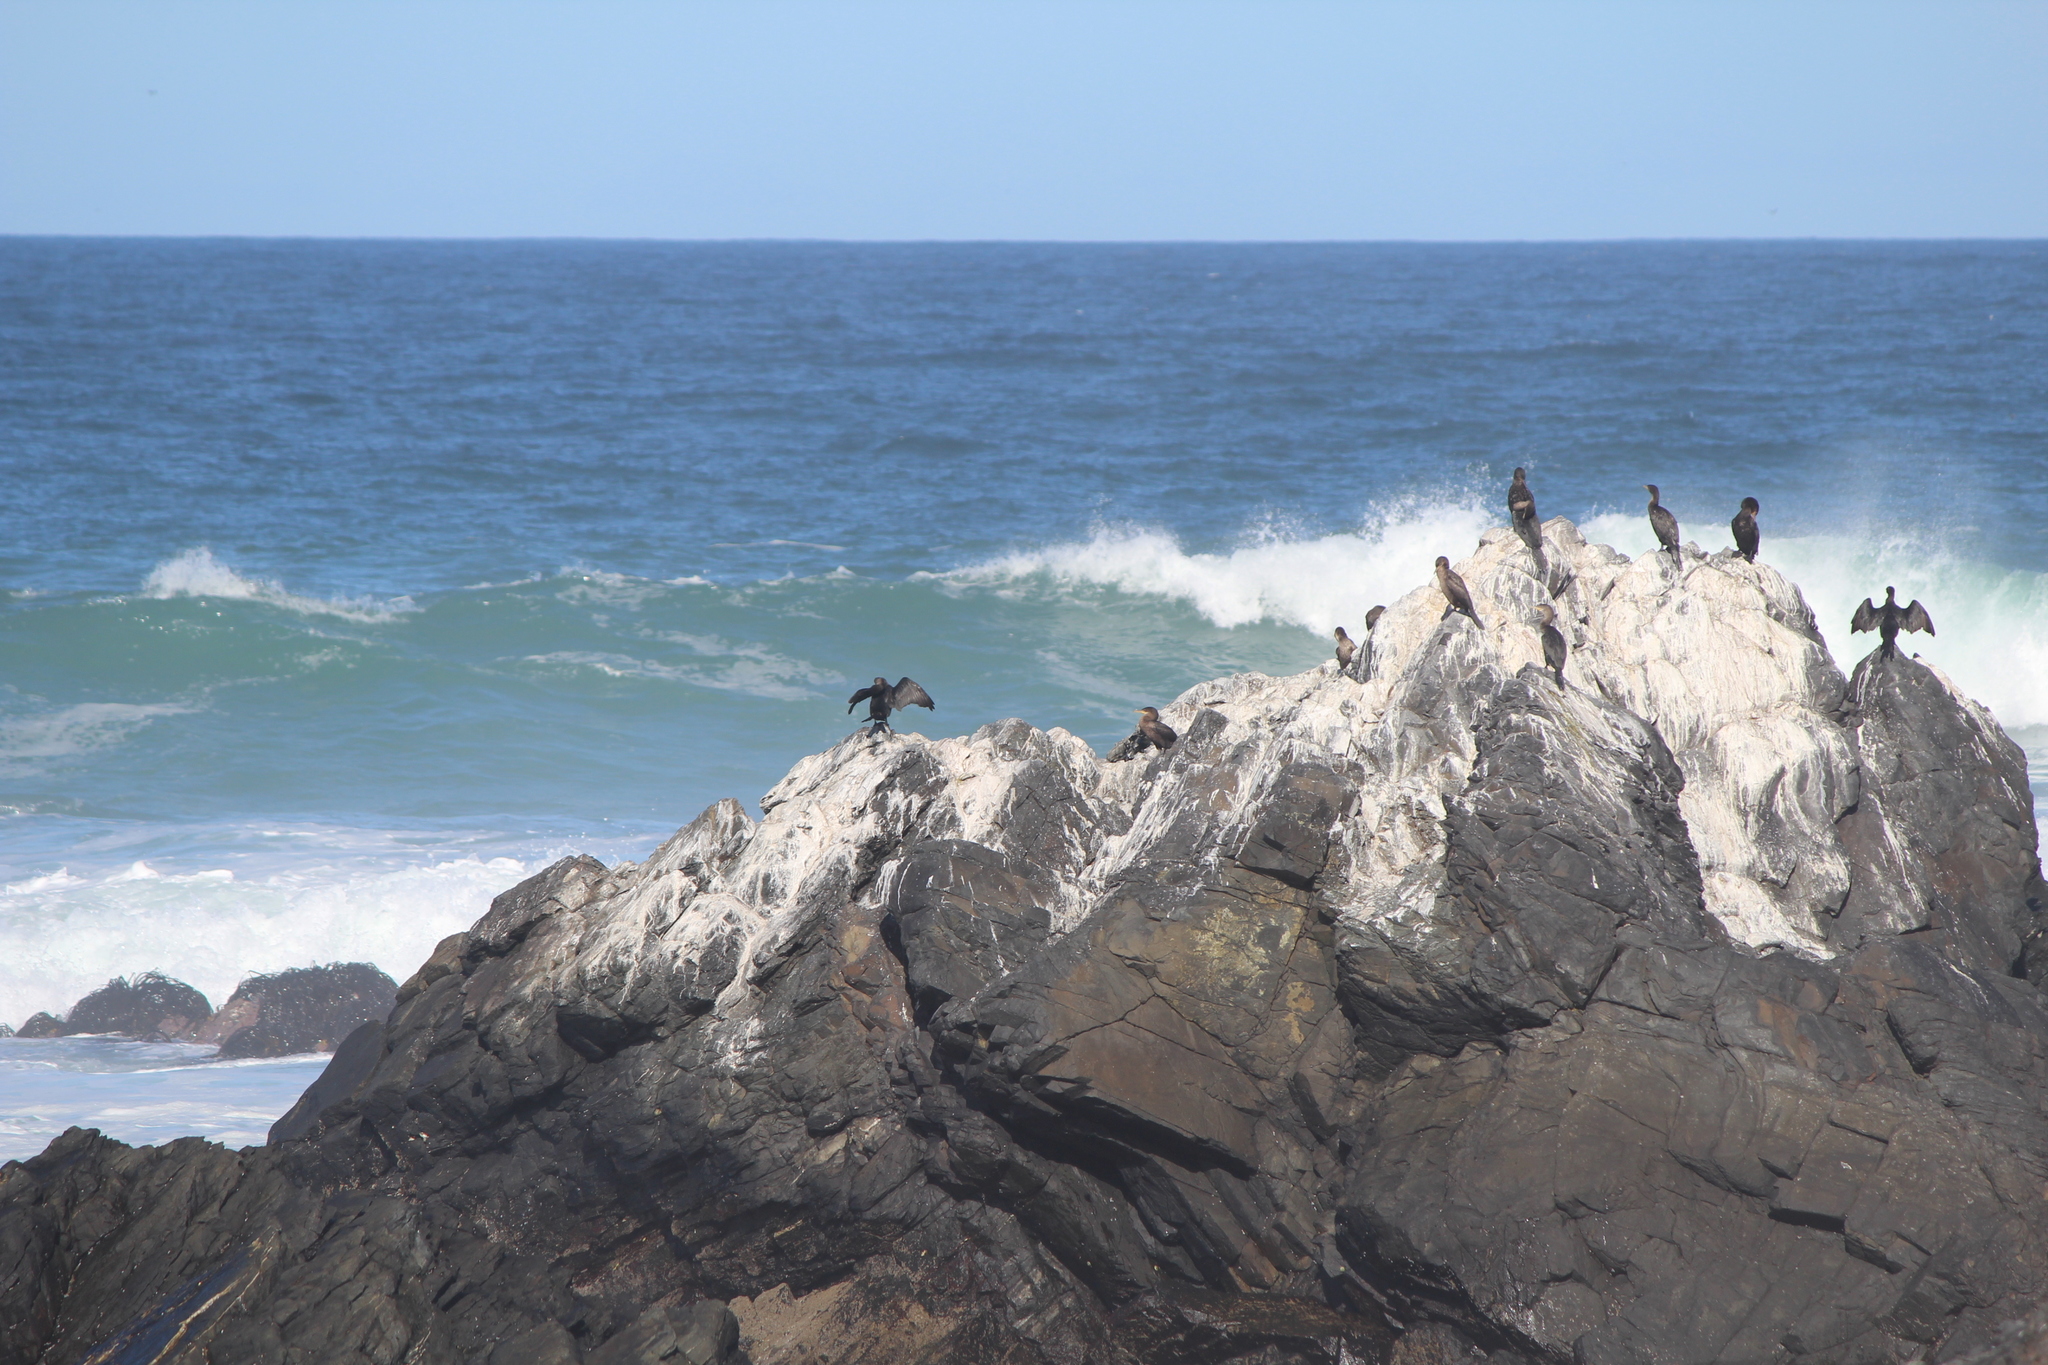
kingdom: Animalia
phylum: Chordata
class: Aves
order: Suliformes
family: Phalacrocoracidae
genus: Phalacrocorax
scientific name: Phalacrocorax brasilianus
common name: Neotropic cormorant
